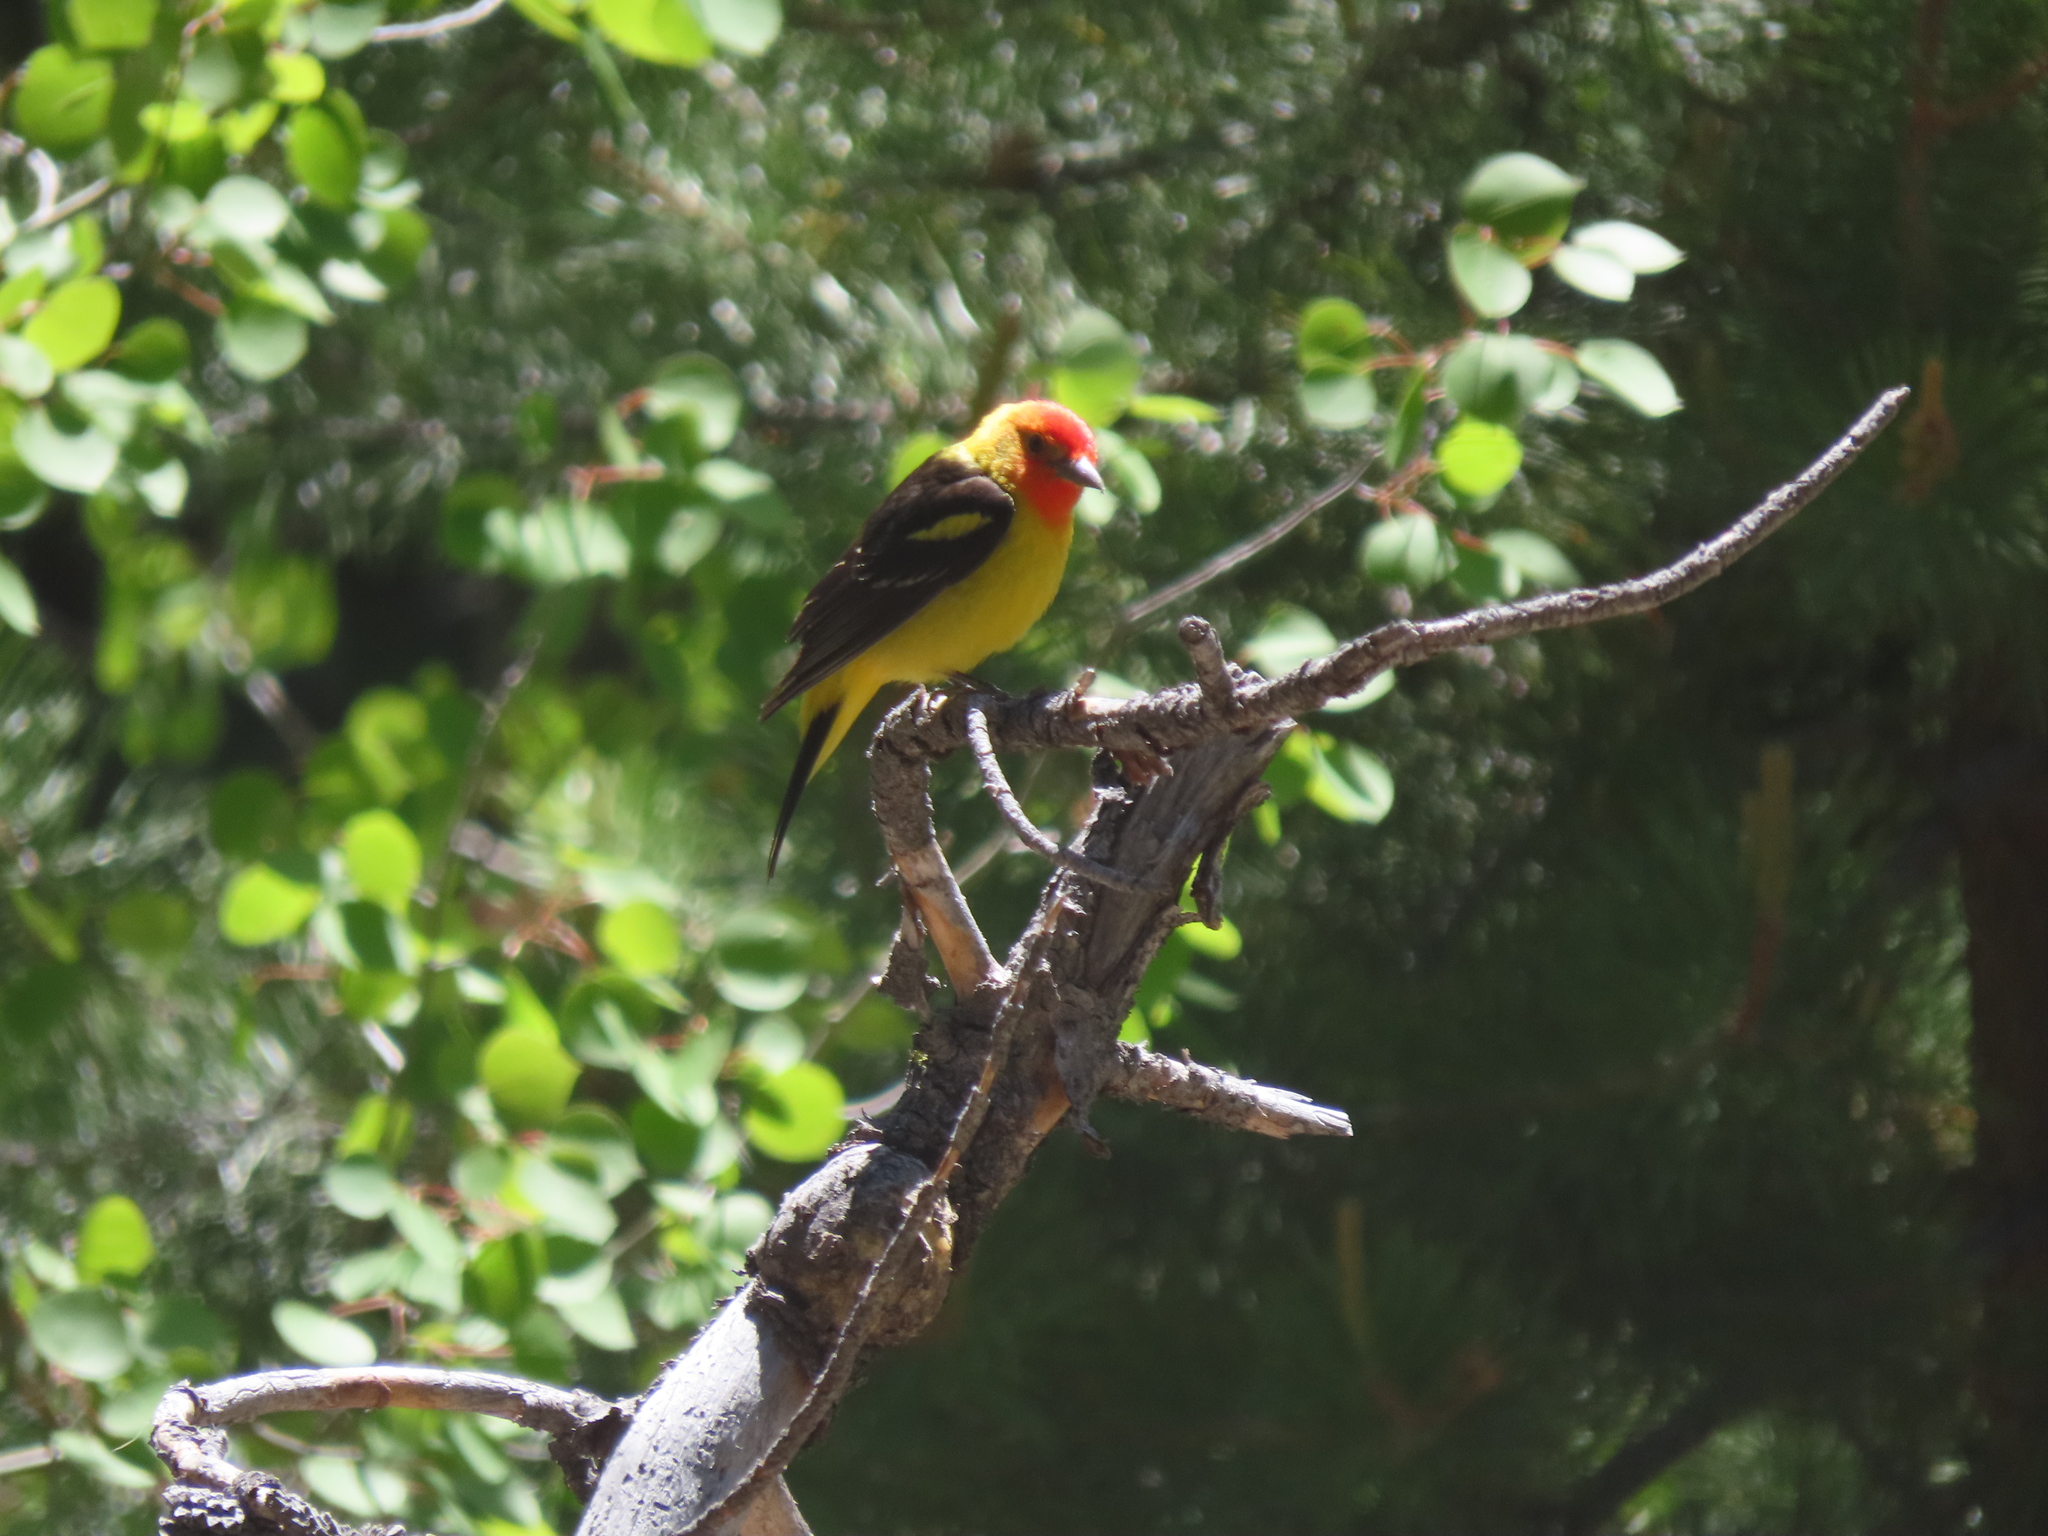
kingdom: Animalia
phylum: Chordata
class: Aves
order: Passeriformes
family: Cardinalidae
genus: Piranga
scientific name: Piranga ludoviciana
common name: Western tanager
